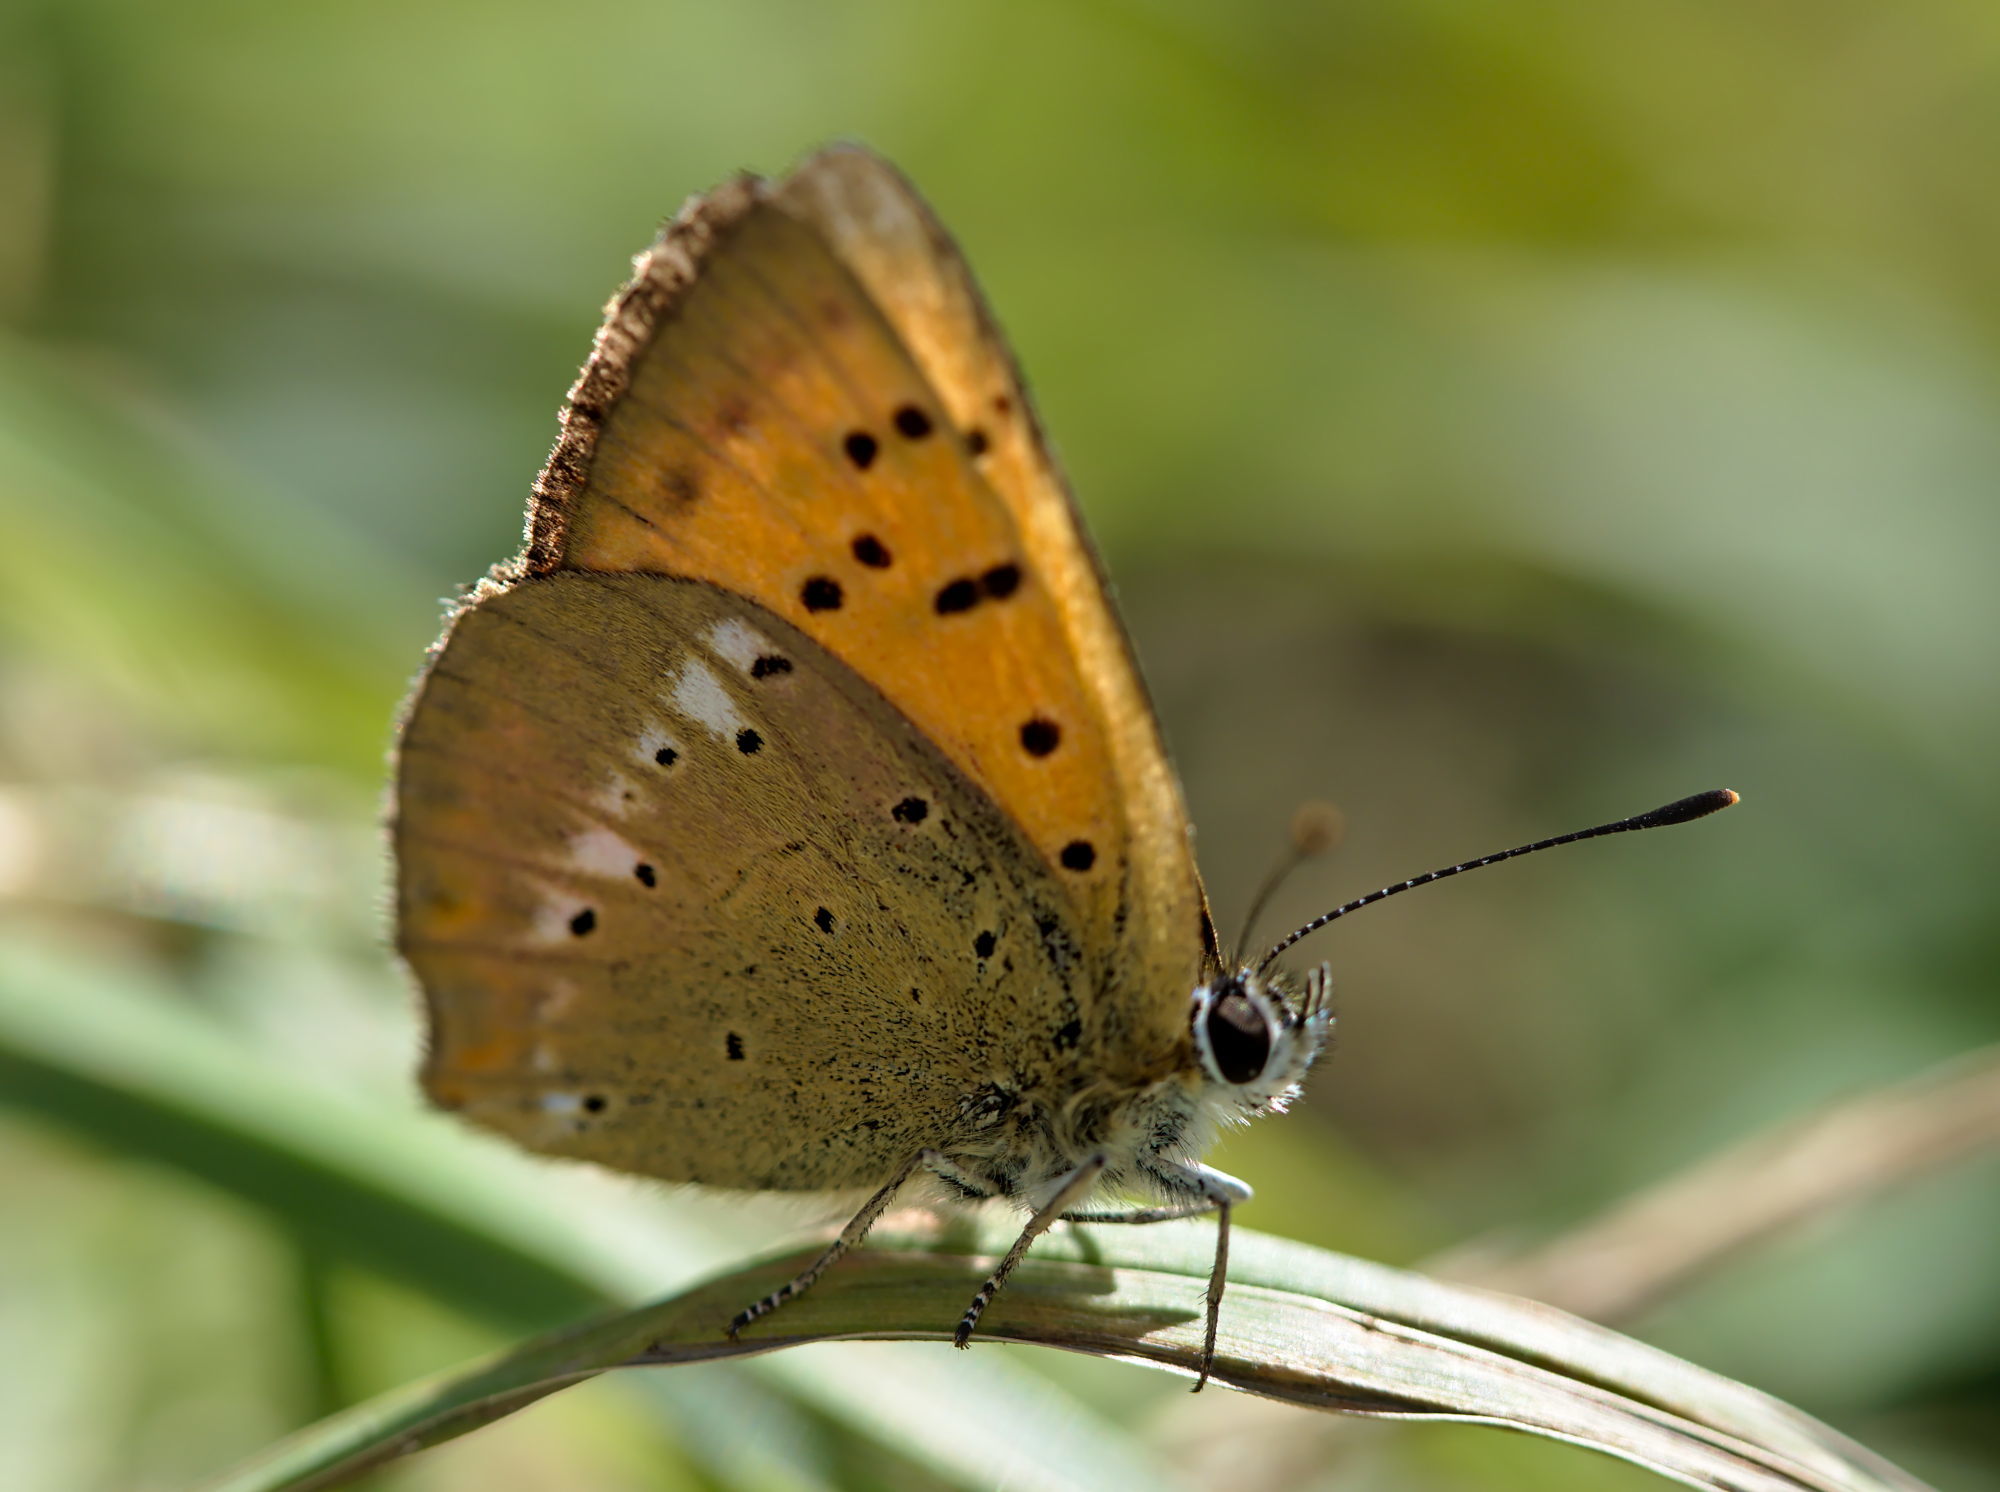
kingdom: Animalia
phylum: Arthropoda
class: Insecta
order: Lepidoptera
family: Lycaenidae
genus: Lycaena
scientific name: Lycaena virgaureae
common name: Scarce copper
